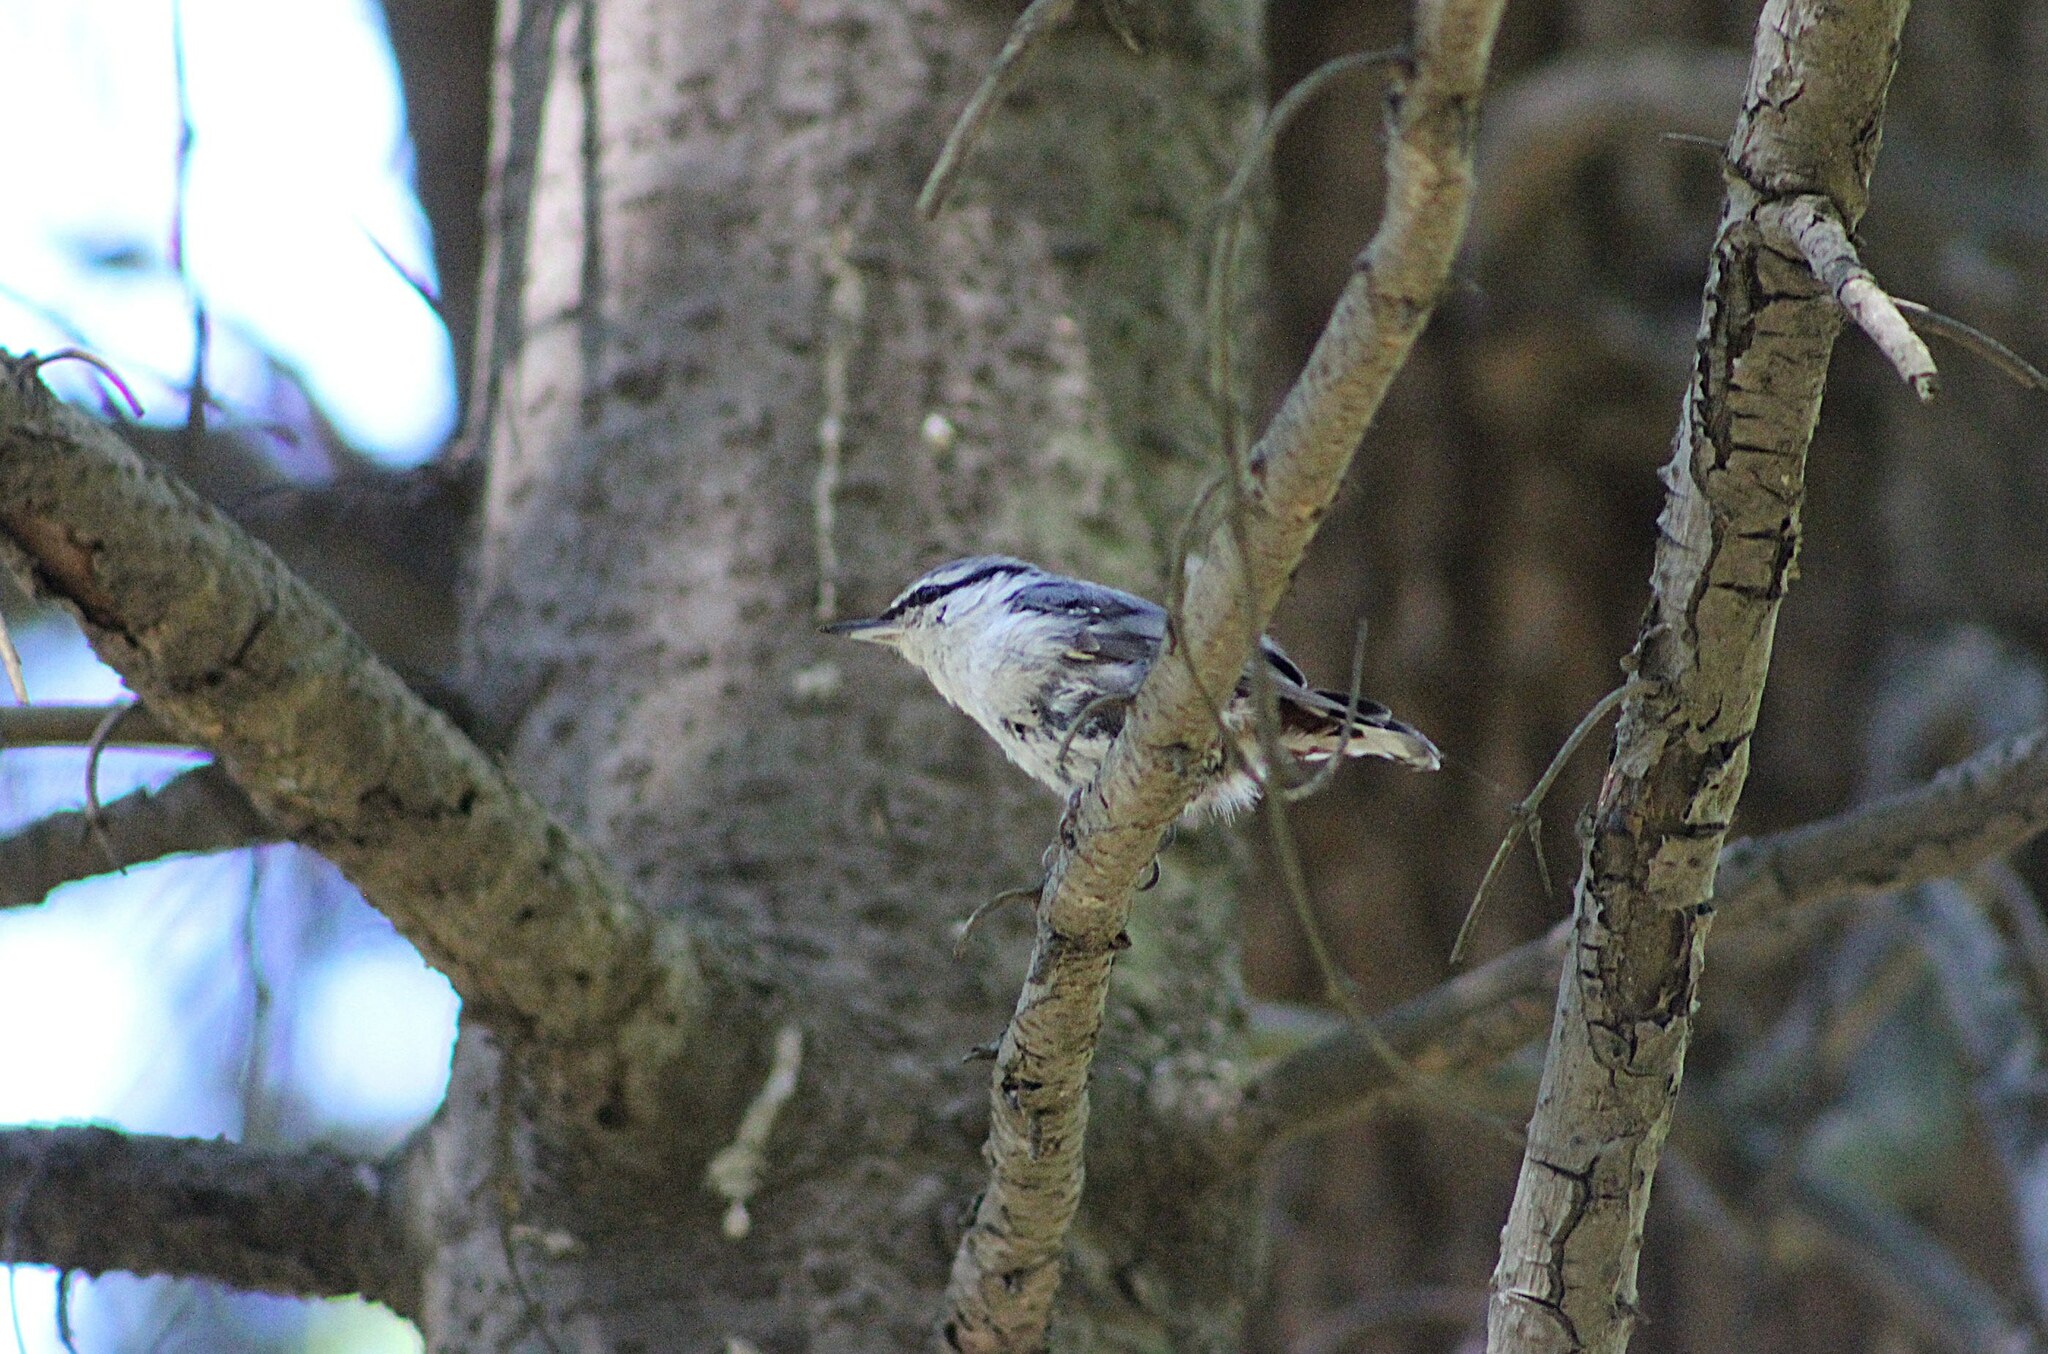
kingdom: Animalia
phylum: Chordata
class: Aves
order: Passeriformes
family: Sittidae
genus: Sitta
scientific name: Sitta europaea
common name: Eurasian nuthatch
